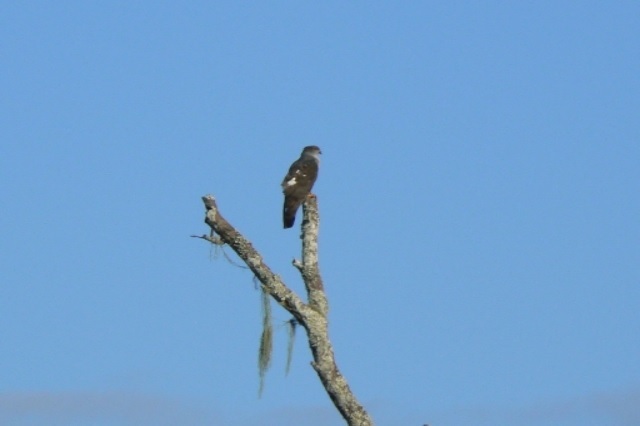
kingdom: Animalia
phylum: Chordata
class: Aves
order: Accipitriformes
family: Accipitridae
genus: Aviceda
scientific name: Aviceda cuculoides
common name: African cuckoo-hawk
